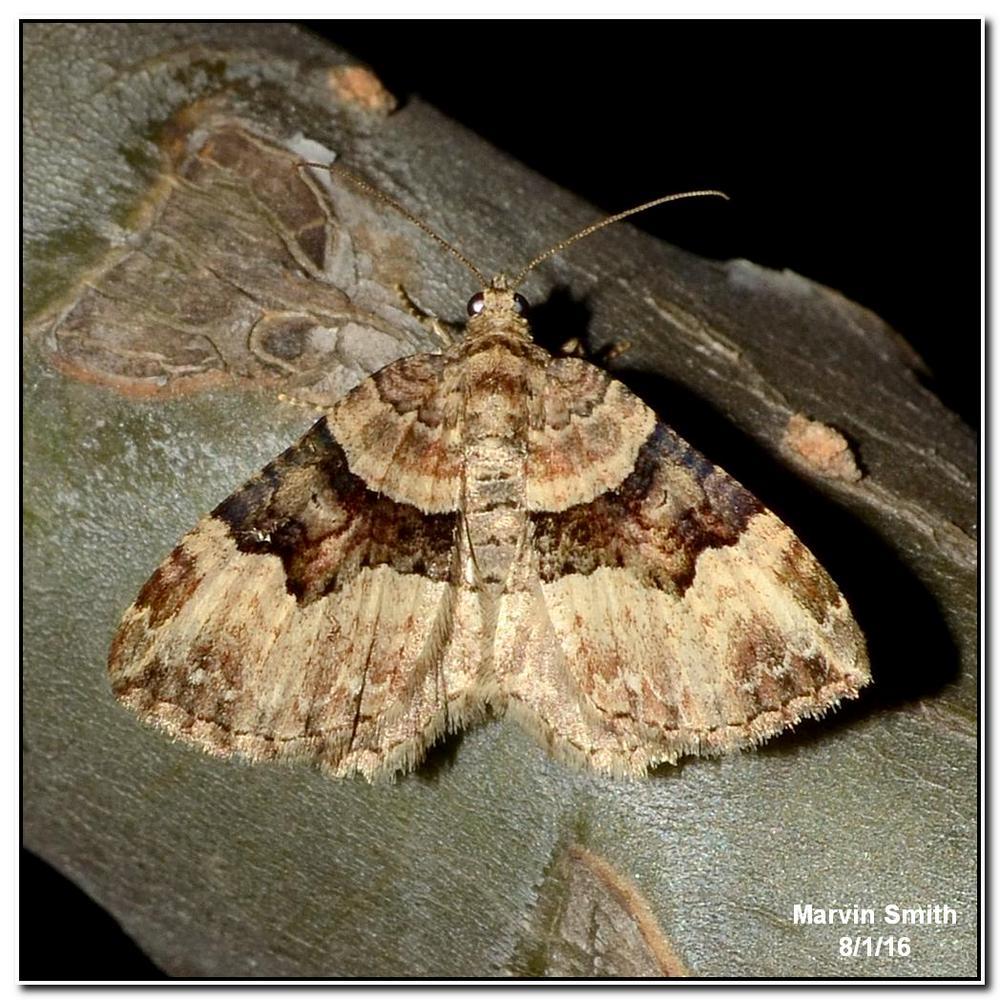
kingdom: Animalia
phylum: Arthropoda
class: Insecta
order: Lepidoptera
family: Geometridae
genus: Xanthorhoe
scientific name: Xanthorhoe lacustrata
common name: Toothed brown carpet
